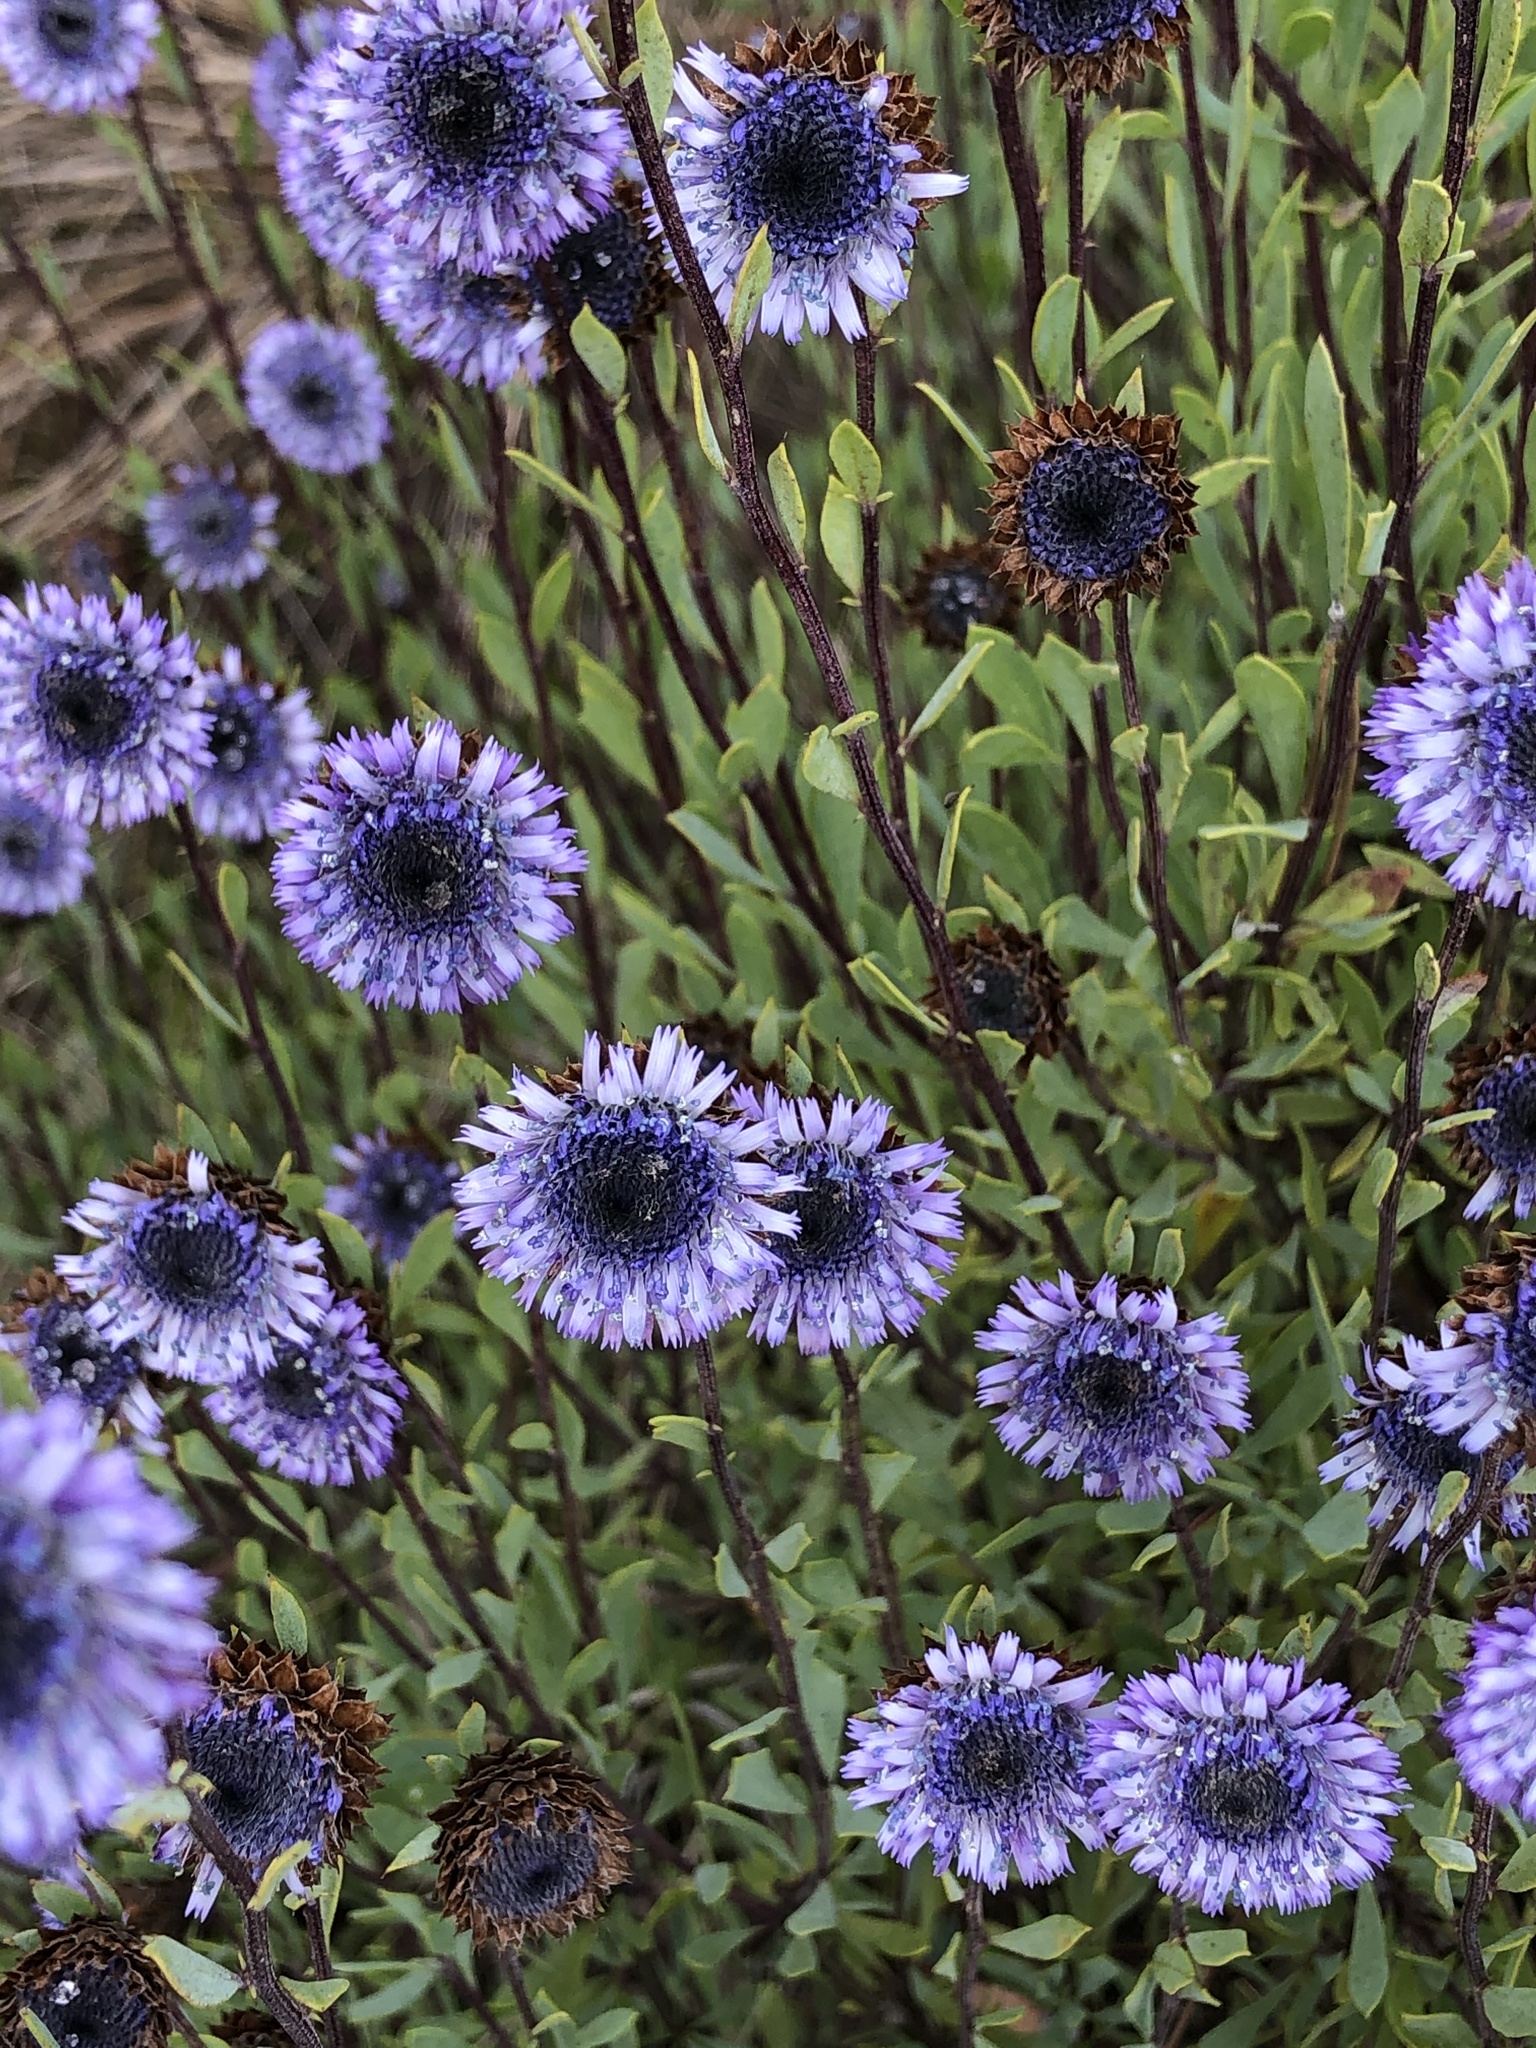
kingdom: Plantae
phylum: Tracheophyta
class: Magnoliopsida
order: Lamiales
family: Plantaginaceae
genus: Globularia
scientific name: Globularia alypum
